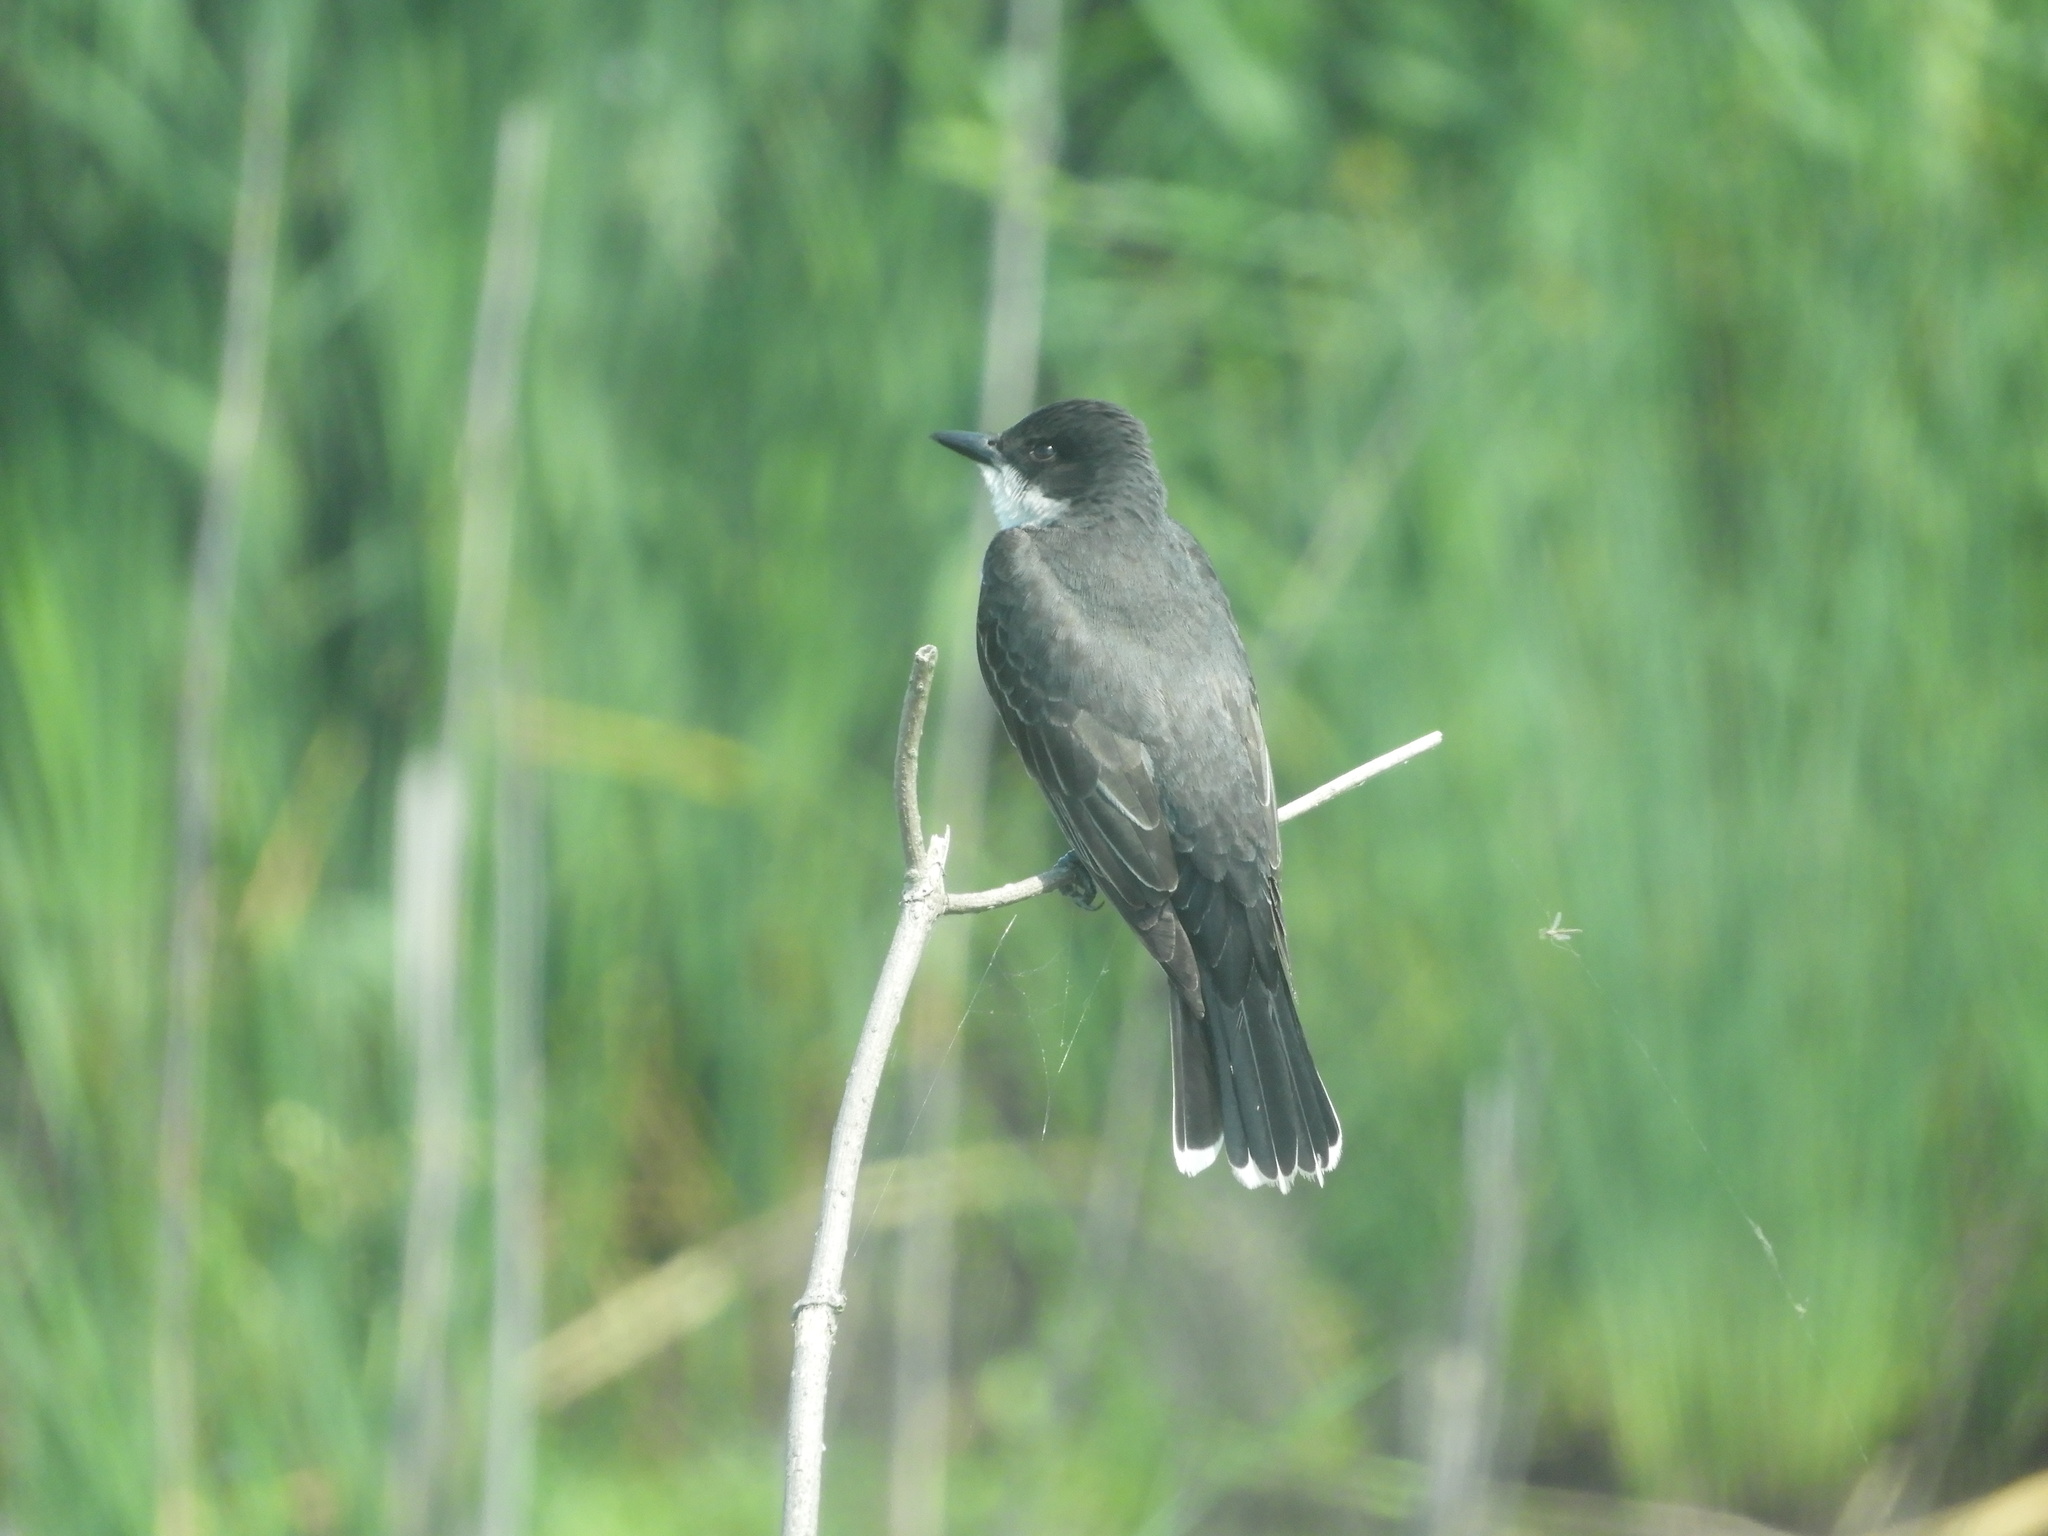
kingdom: Animalia
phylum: Chordata
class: Aves
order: Passeriformes
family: Tyrannidae
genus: Tyrannus
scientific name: Tyrannus tyrannus
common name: Eastern kingbird
